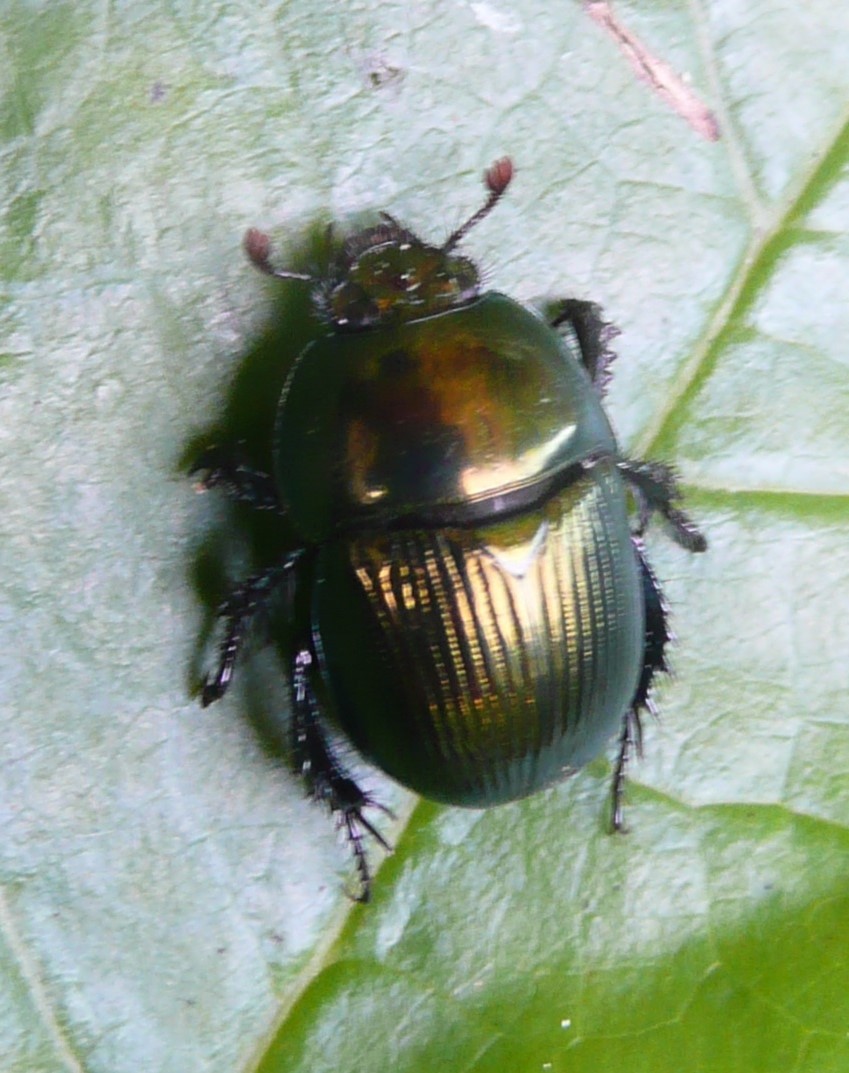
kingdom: Animalia
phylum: Arthropoda
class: Insecta
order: Coleoptera
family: Geotrupidae
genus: Geotrupes
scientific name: Geotrupes splendidus
